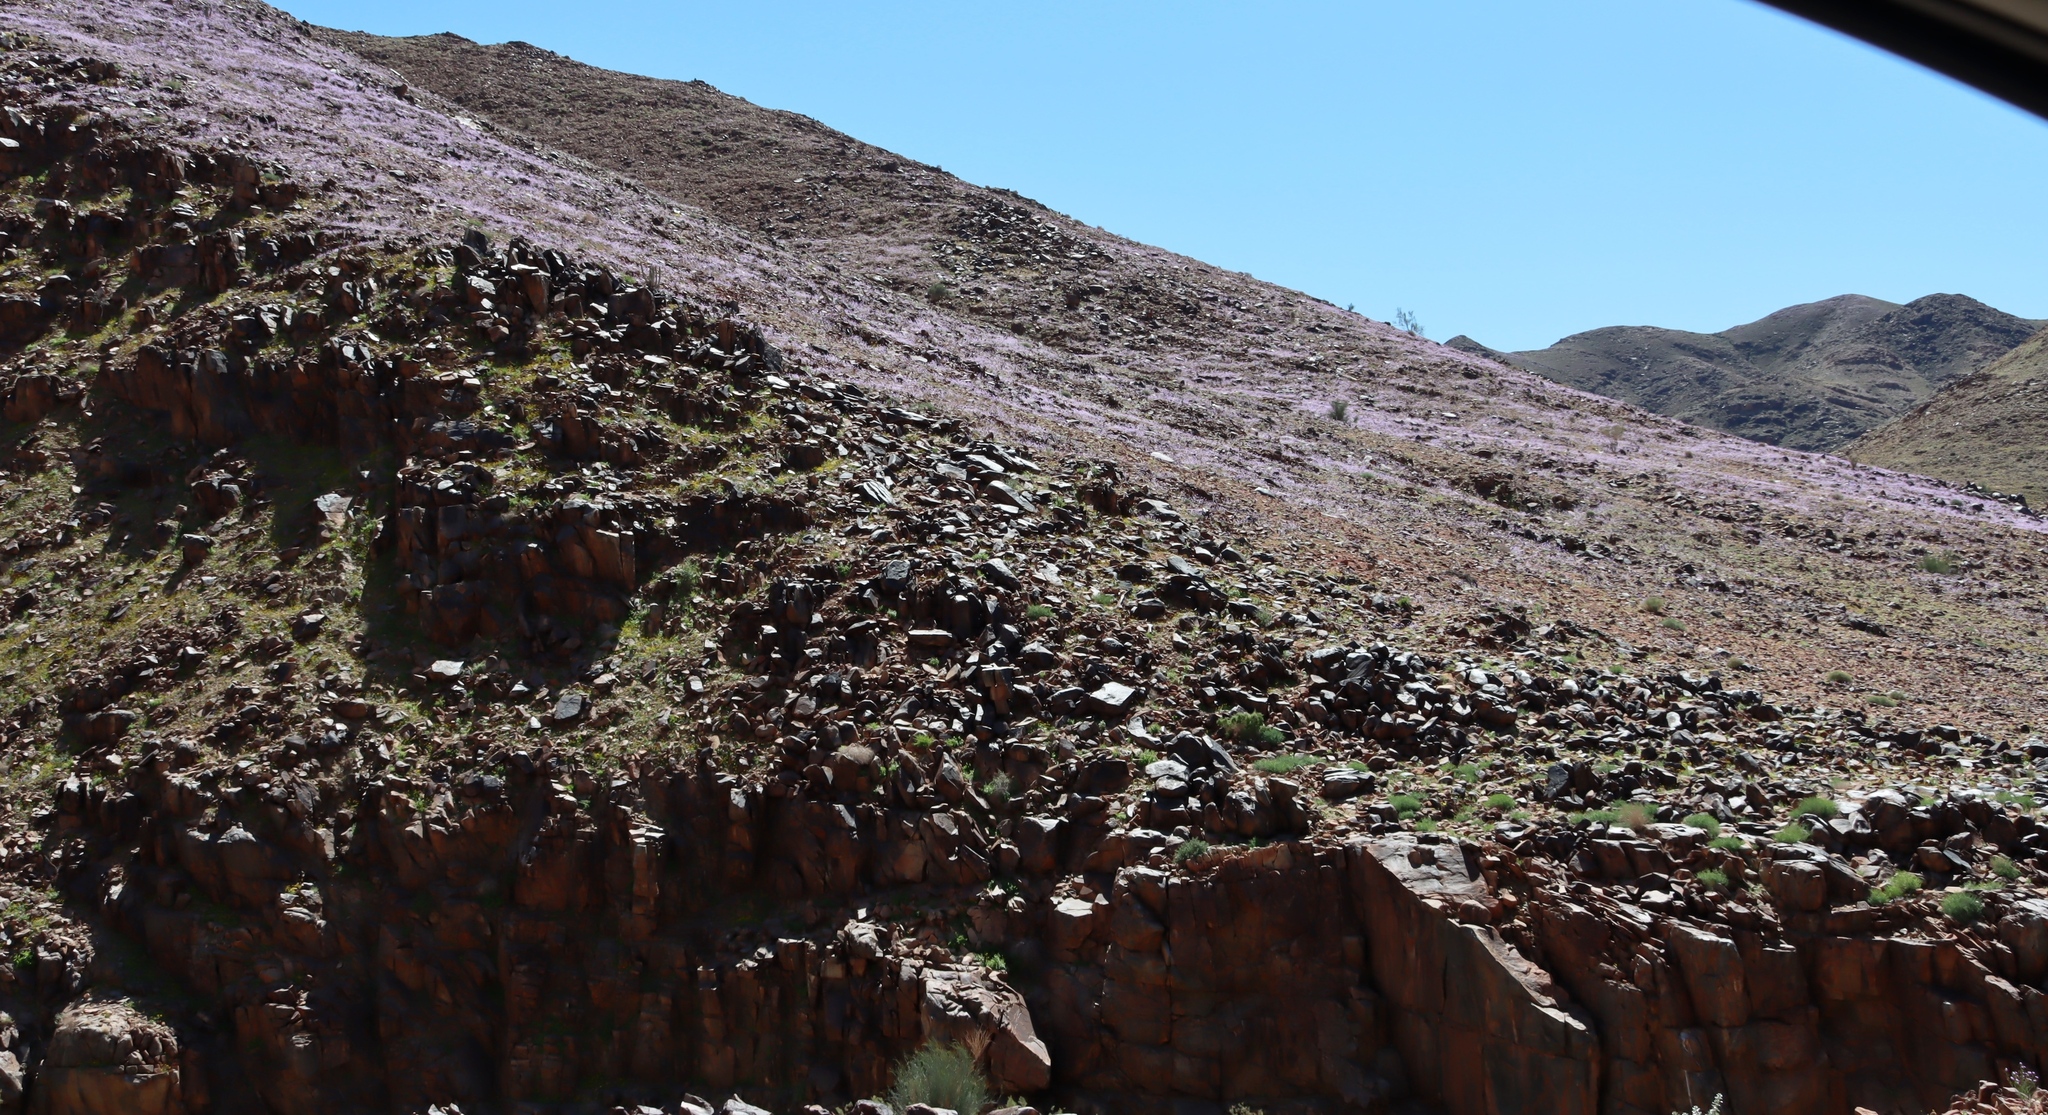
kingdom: Plantae
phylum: Tracheophyta
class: Magnoliopsida
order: Brassicales
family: Brassicaceae
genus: Heliophila
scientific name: Heliophila trifurca
